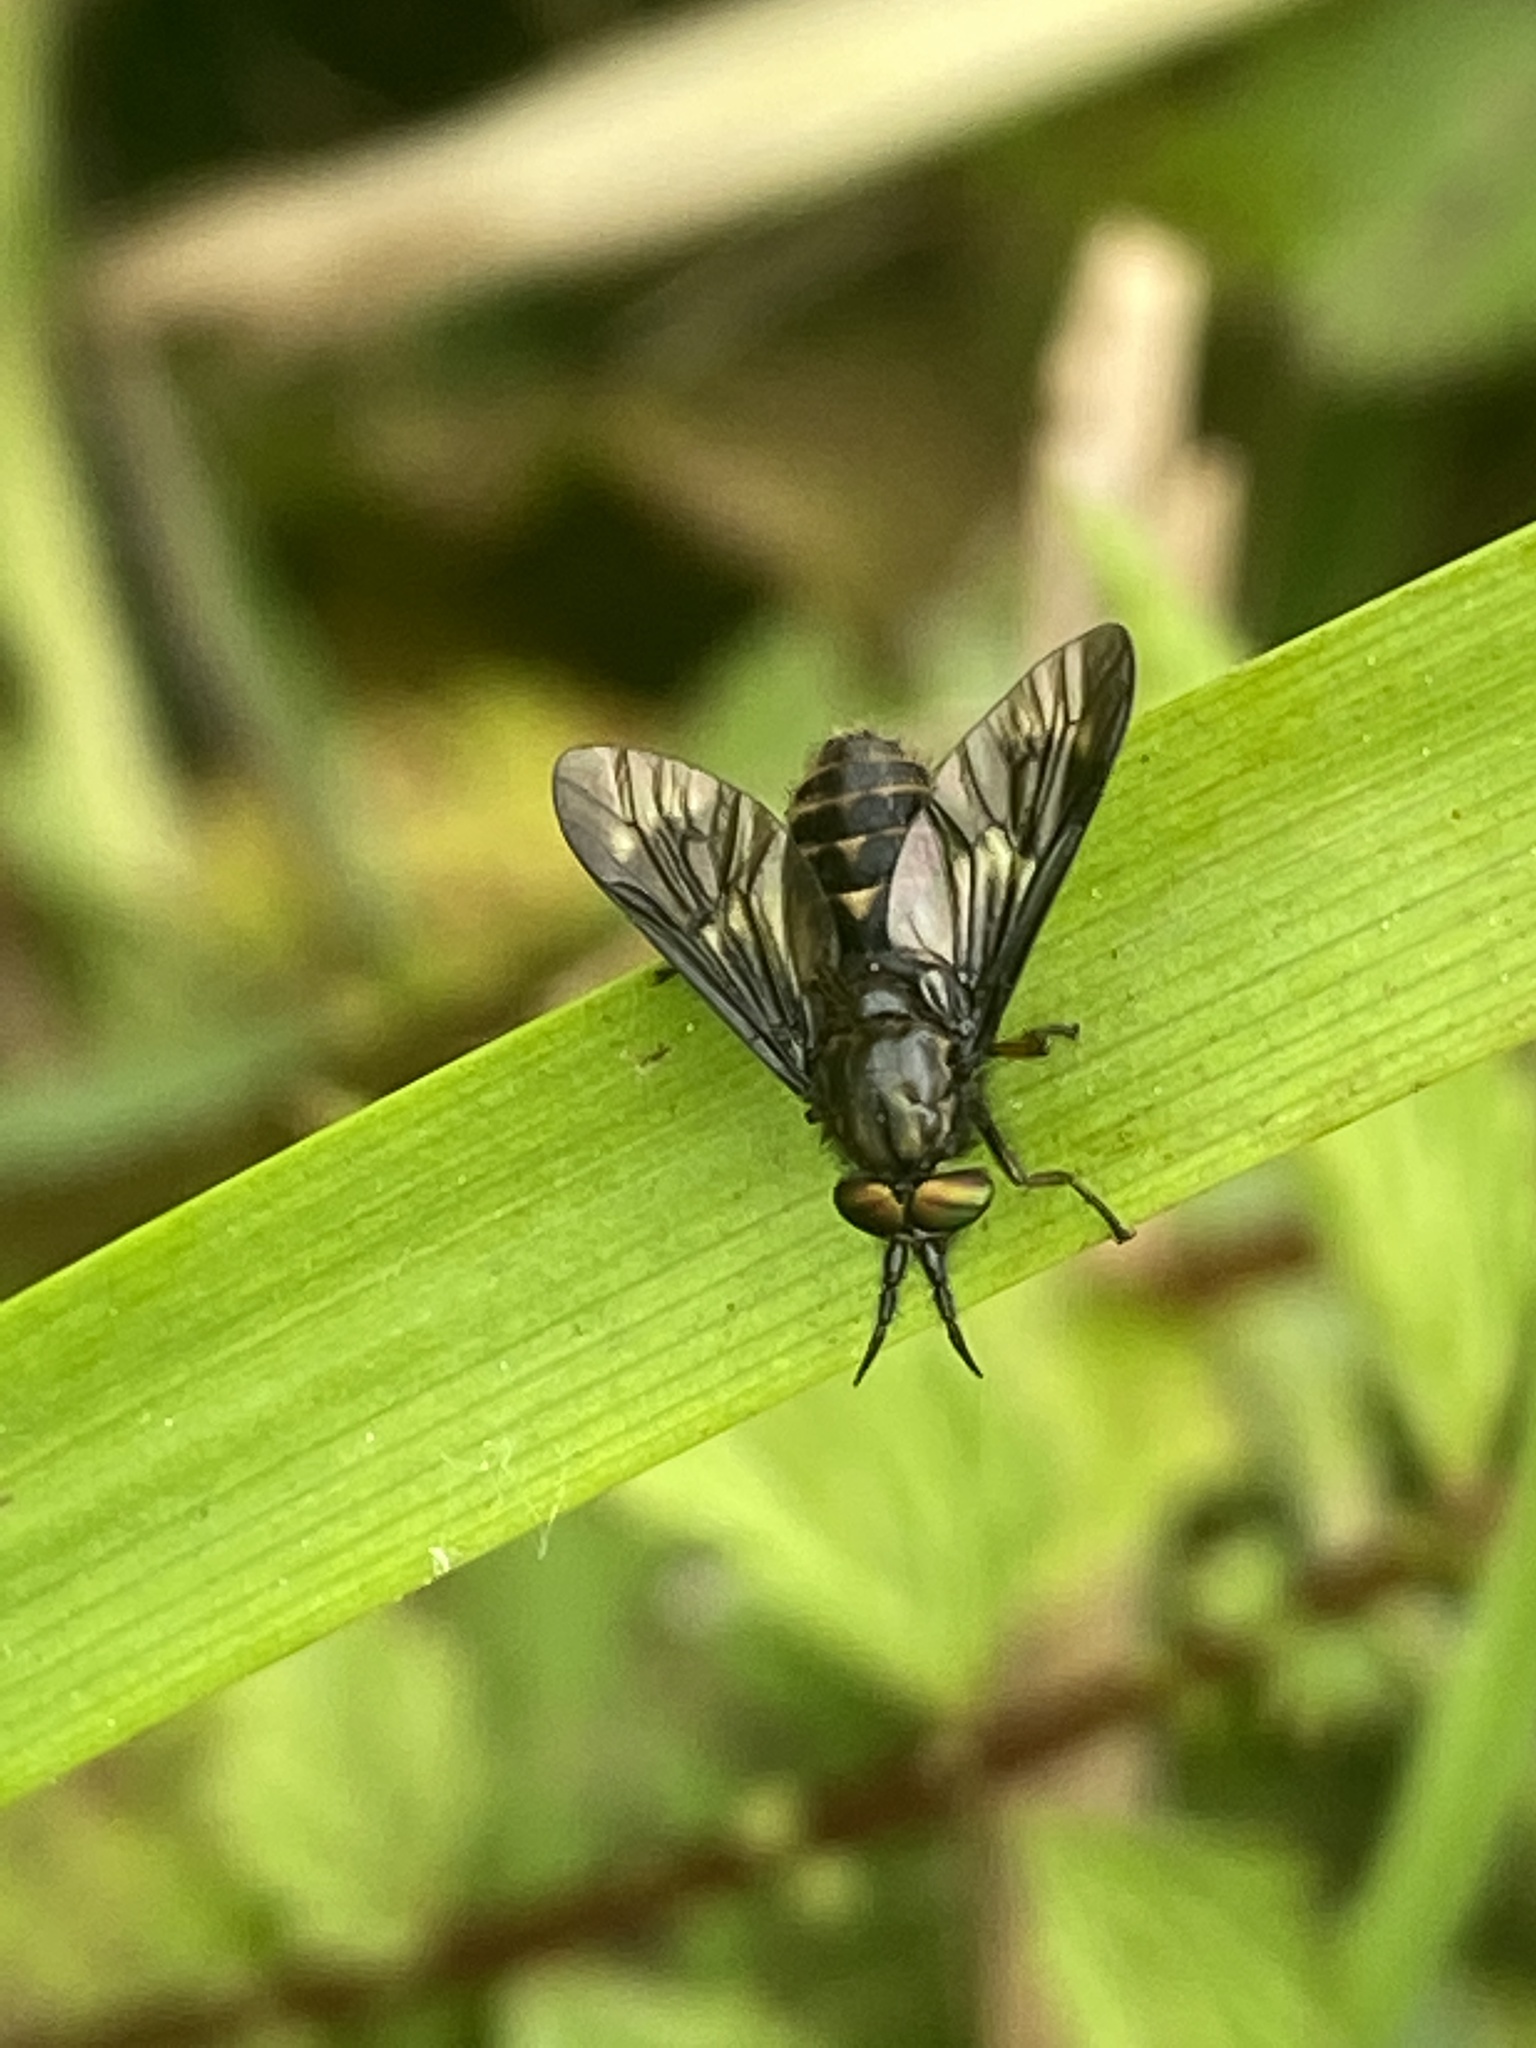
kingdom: Animalia
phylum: Arthropoda
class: Insecta
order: Diptera
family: Tabanidae
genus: Chrysops
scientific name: Chrysops relictus
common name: Twin-lobed deerfly
